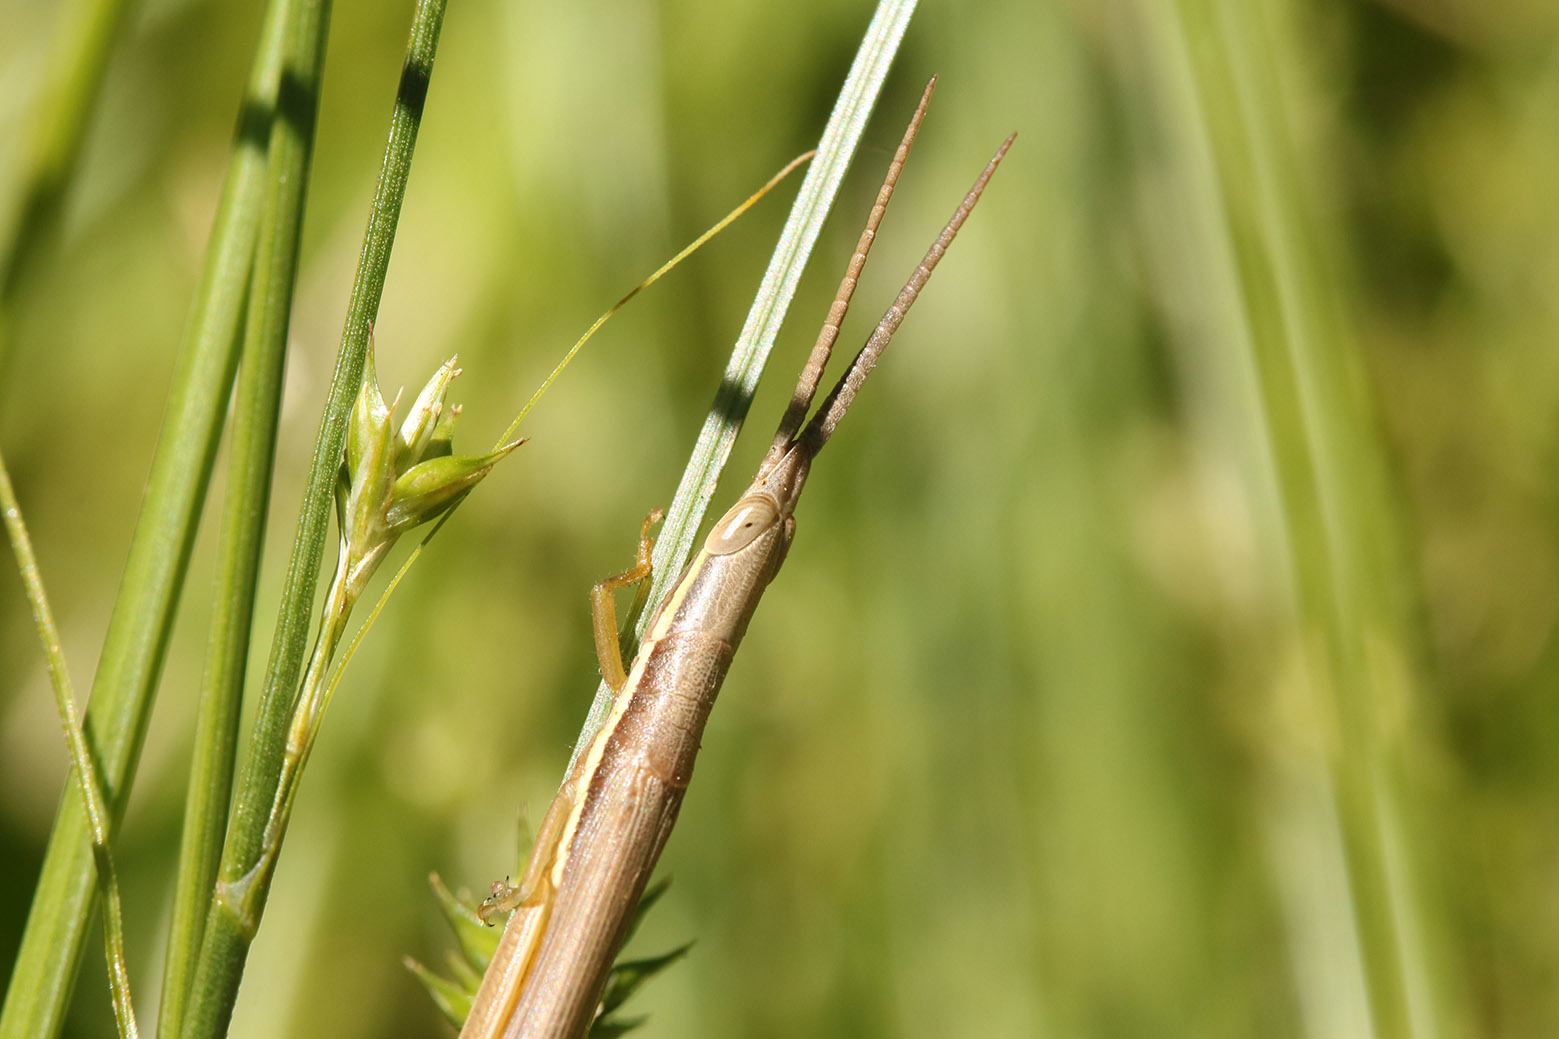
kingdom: Animalia
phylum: Arthropoda
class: Insecta
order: Orthoptera
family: Acrididae
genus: Cylindrotettix
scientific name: Cylindrotettix dorsalis
